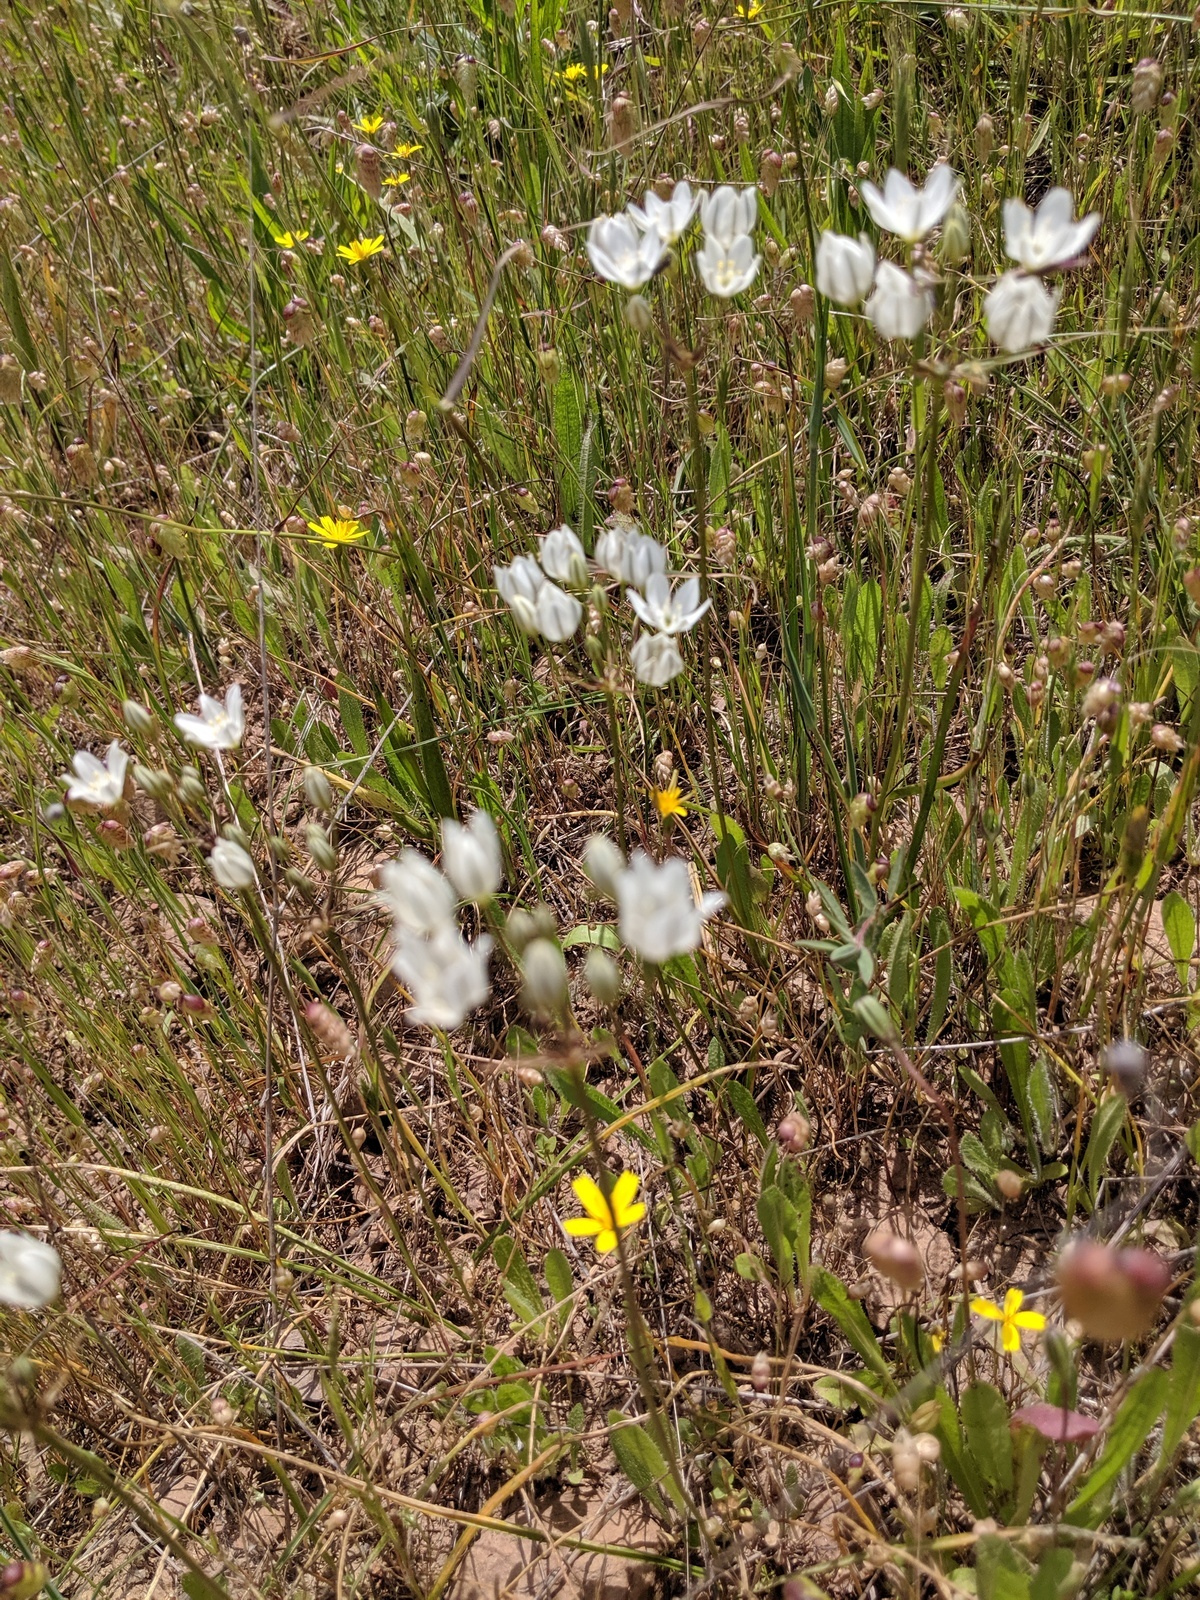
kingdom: Plantae
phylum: Tracheophyta
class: Liliopsida
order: Asparagales
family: Asparagaceae
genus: Triteleia
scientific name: Triteleia hyacinthina
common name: White brodiaea
